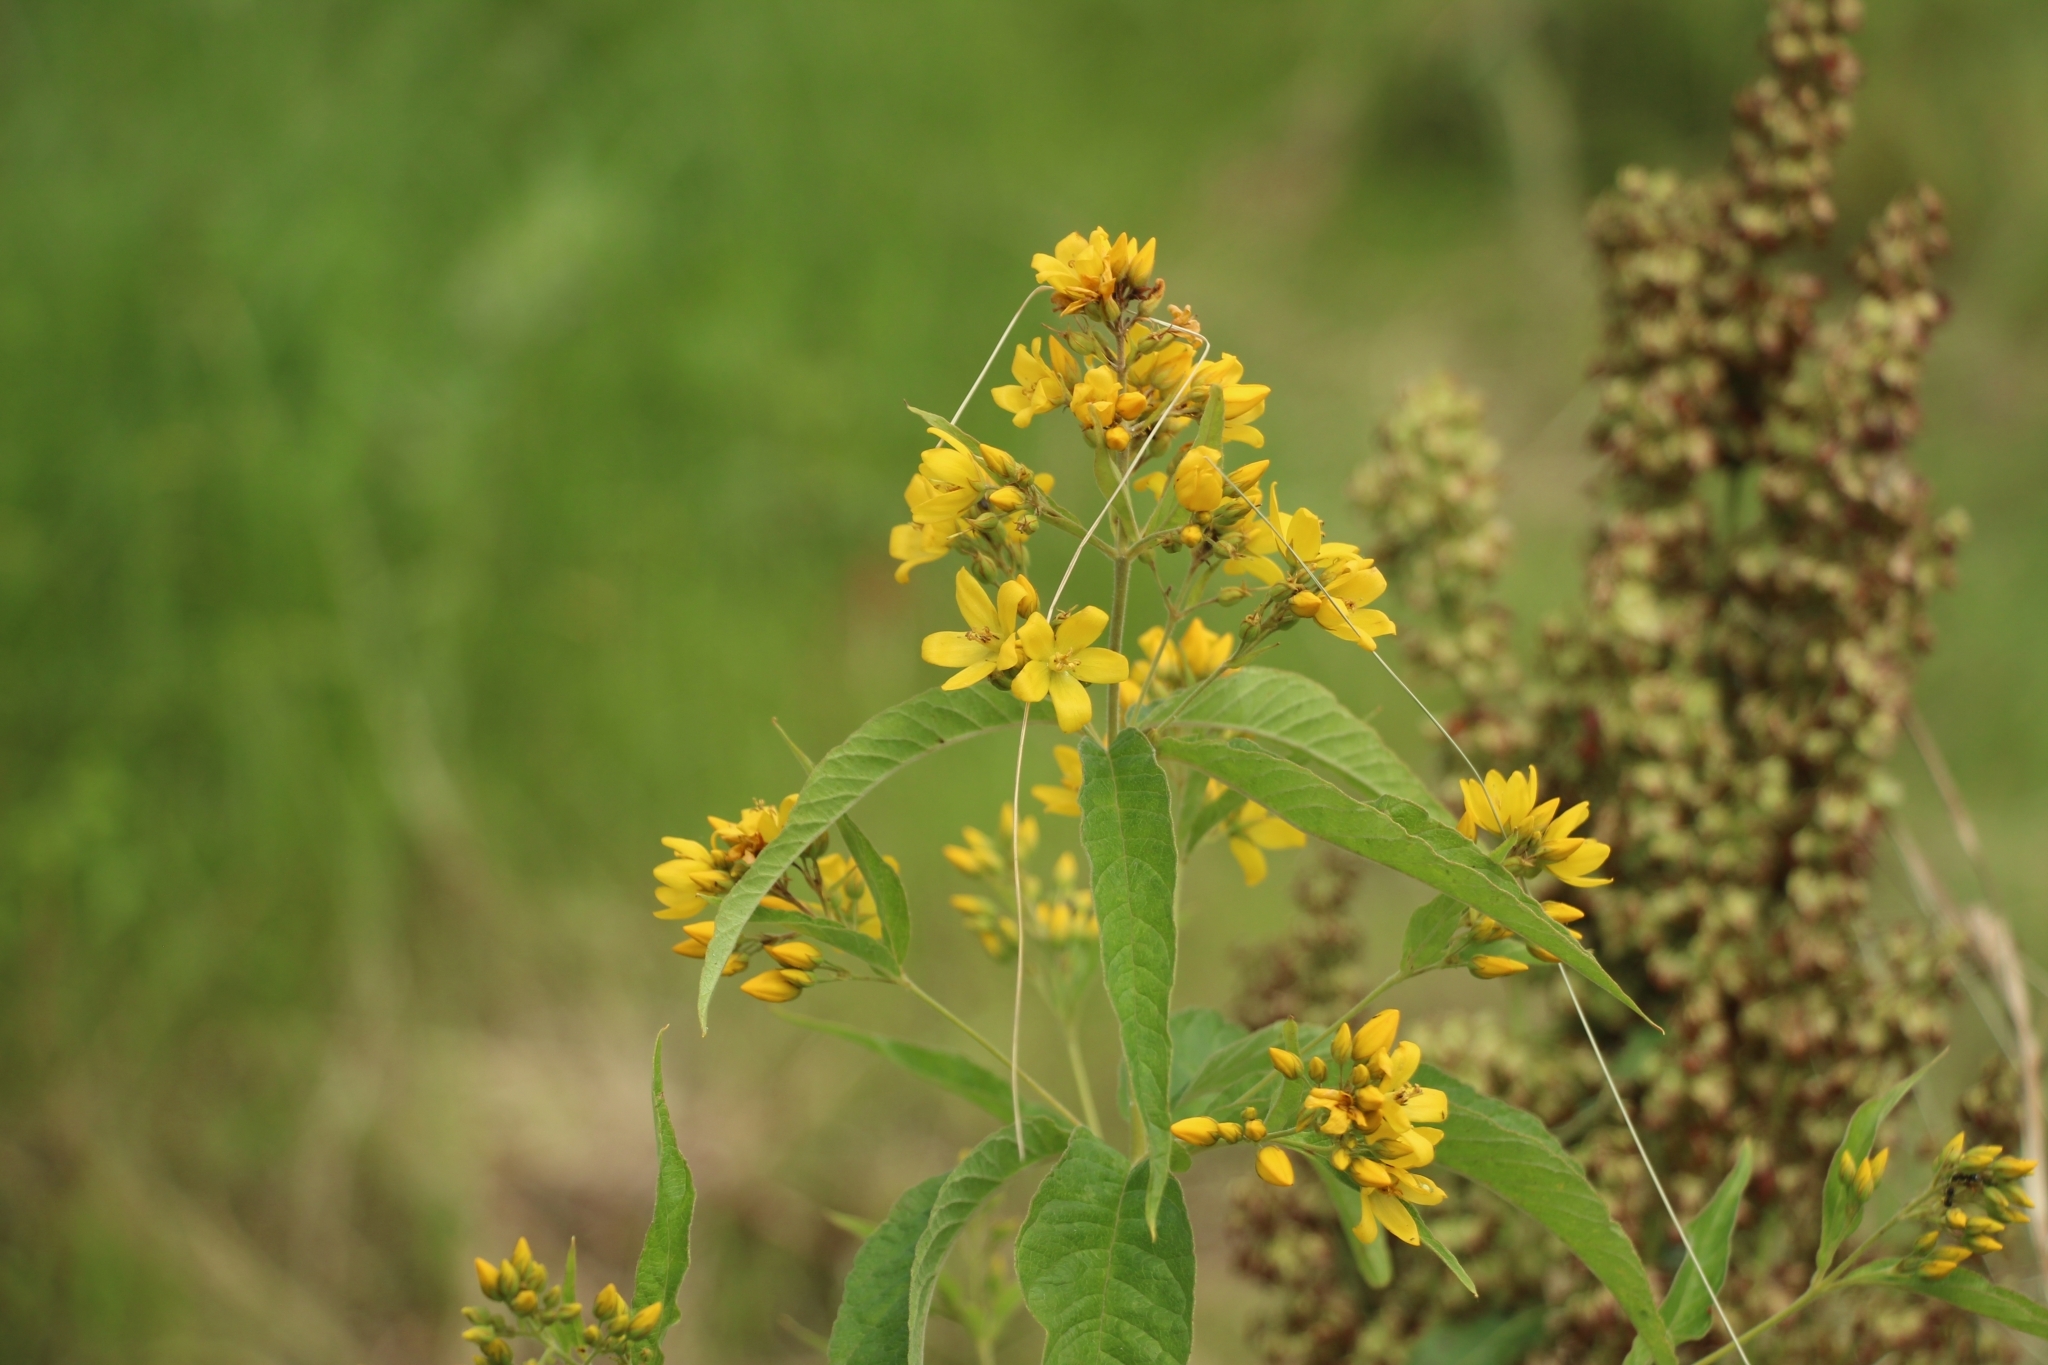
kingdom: Plantae
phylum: Tracheophyta
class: Magnoliopsida
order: Ericales
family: Primulaceae
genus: Lysimachia
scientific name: Lysimachia vulgaris
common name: Yellow loosestrife
